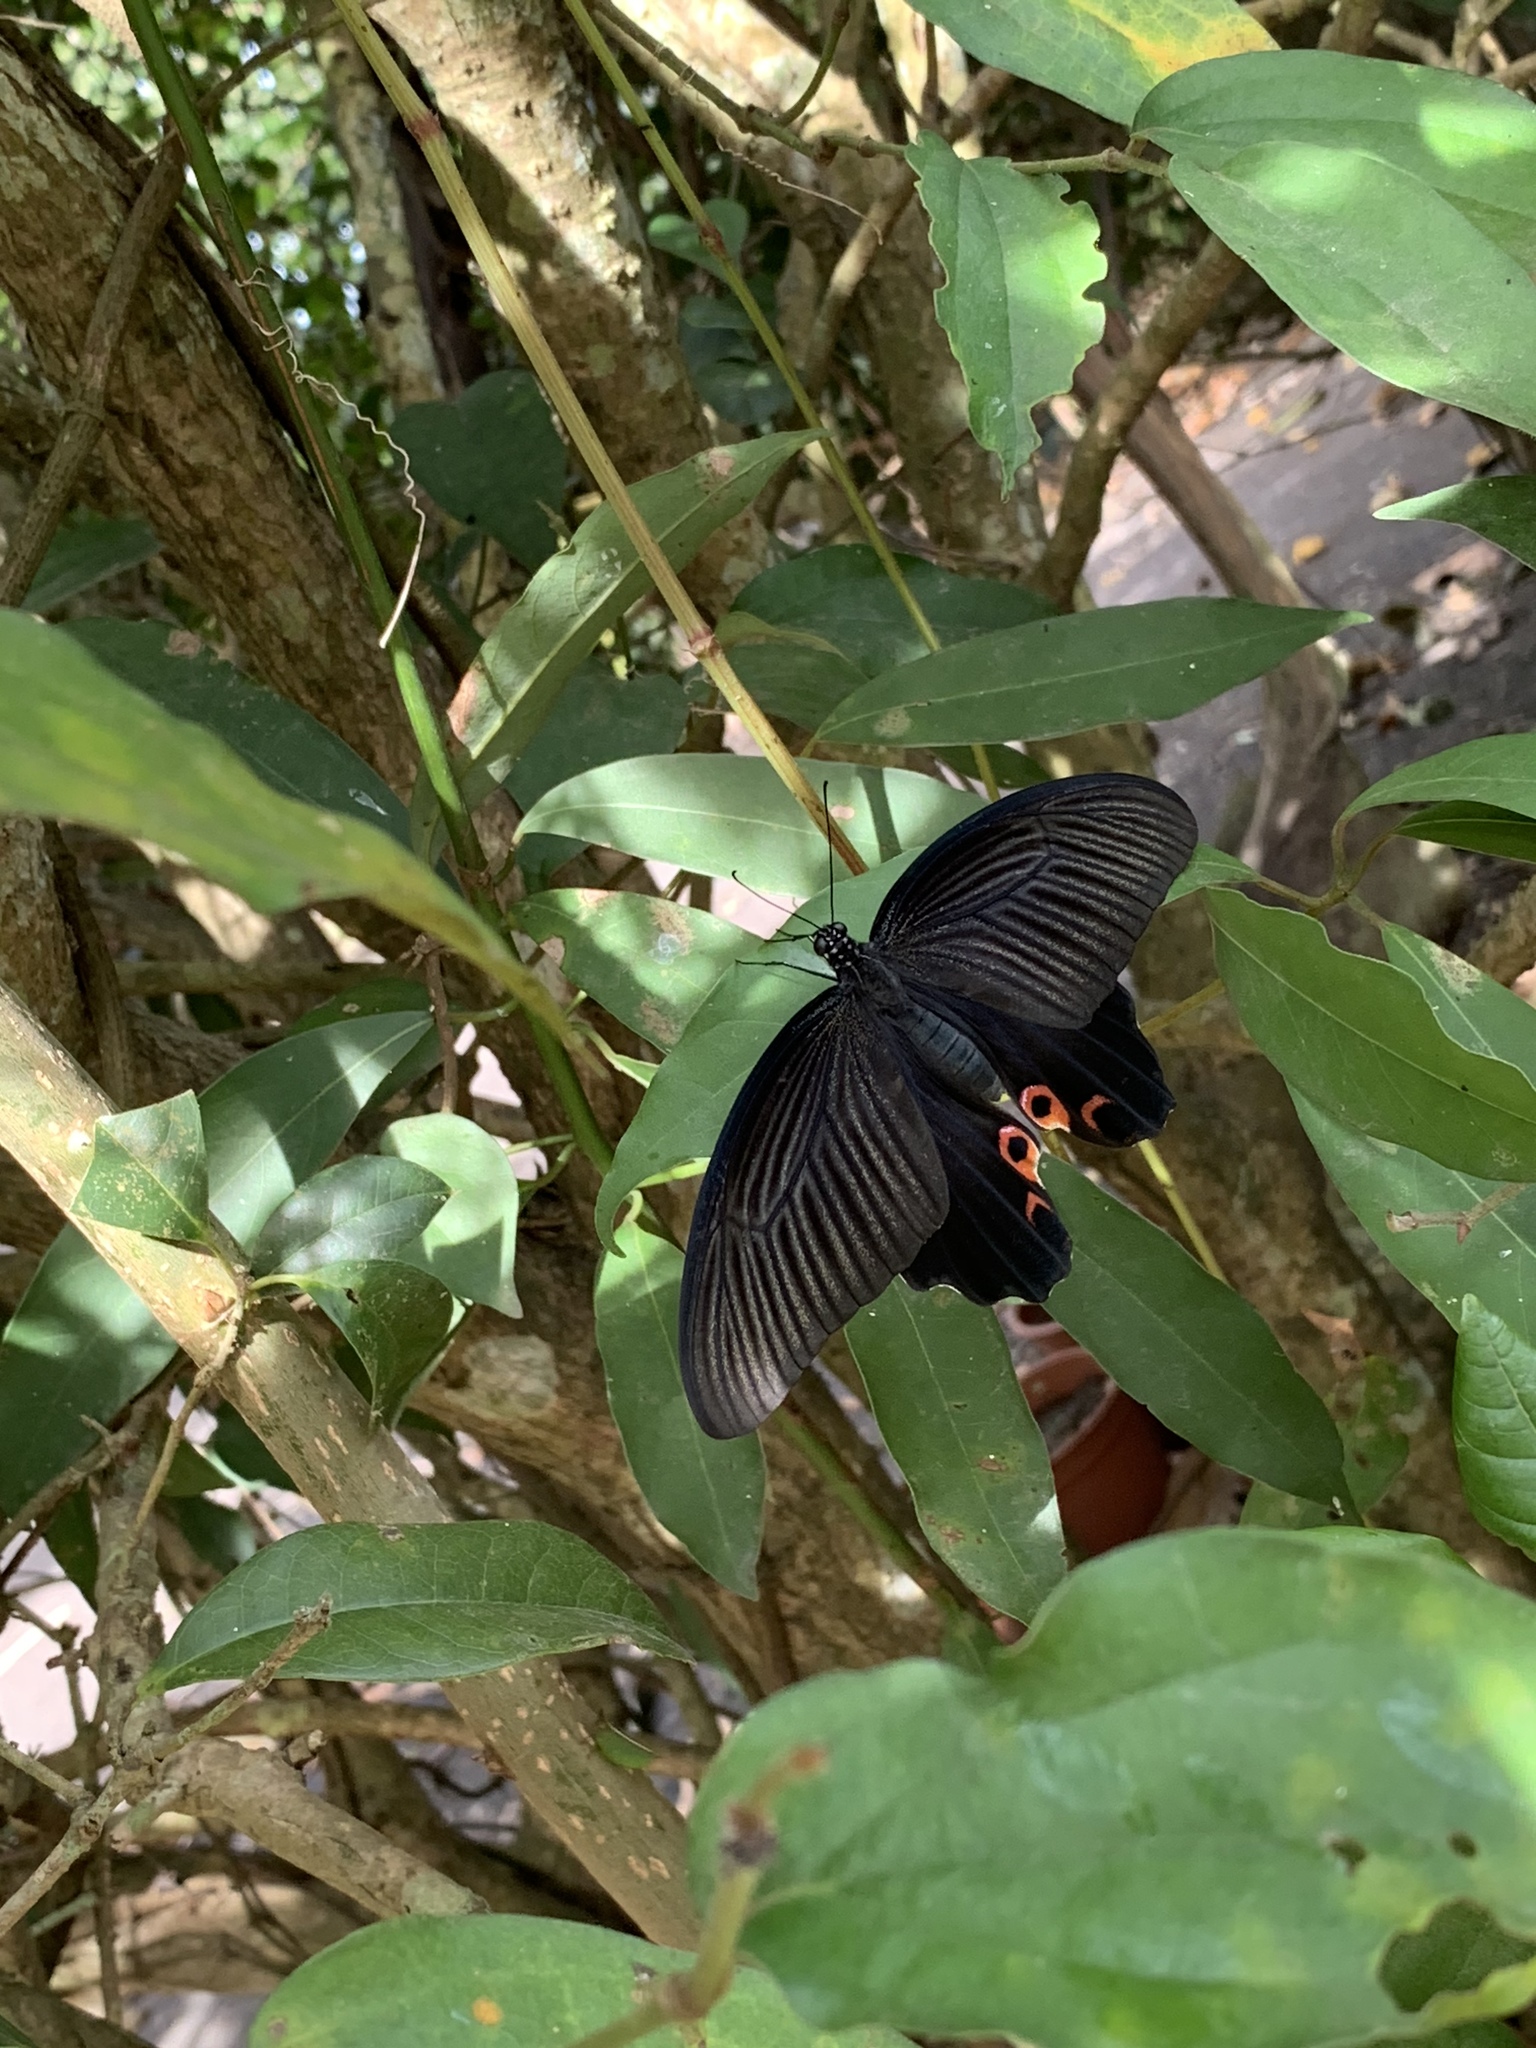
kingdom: Animalia
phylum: Arthropoda
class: Insecta
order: Lepidoptera
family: Papilionidae
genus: Papilio
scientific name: Papilio protenor
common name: Spangle
